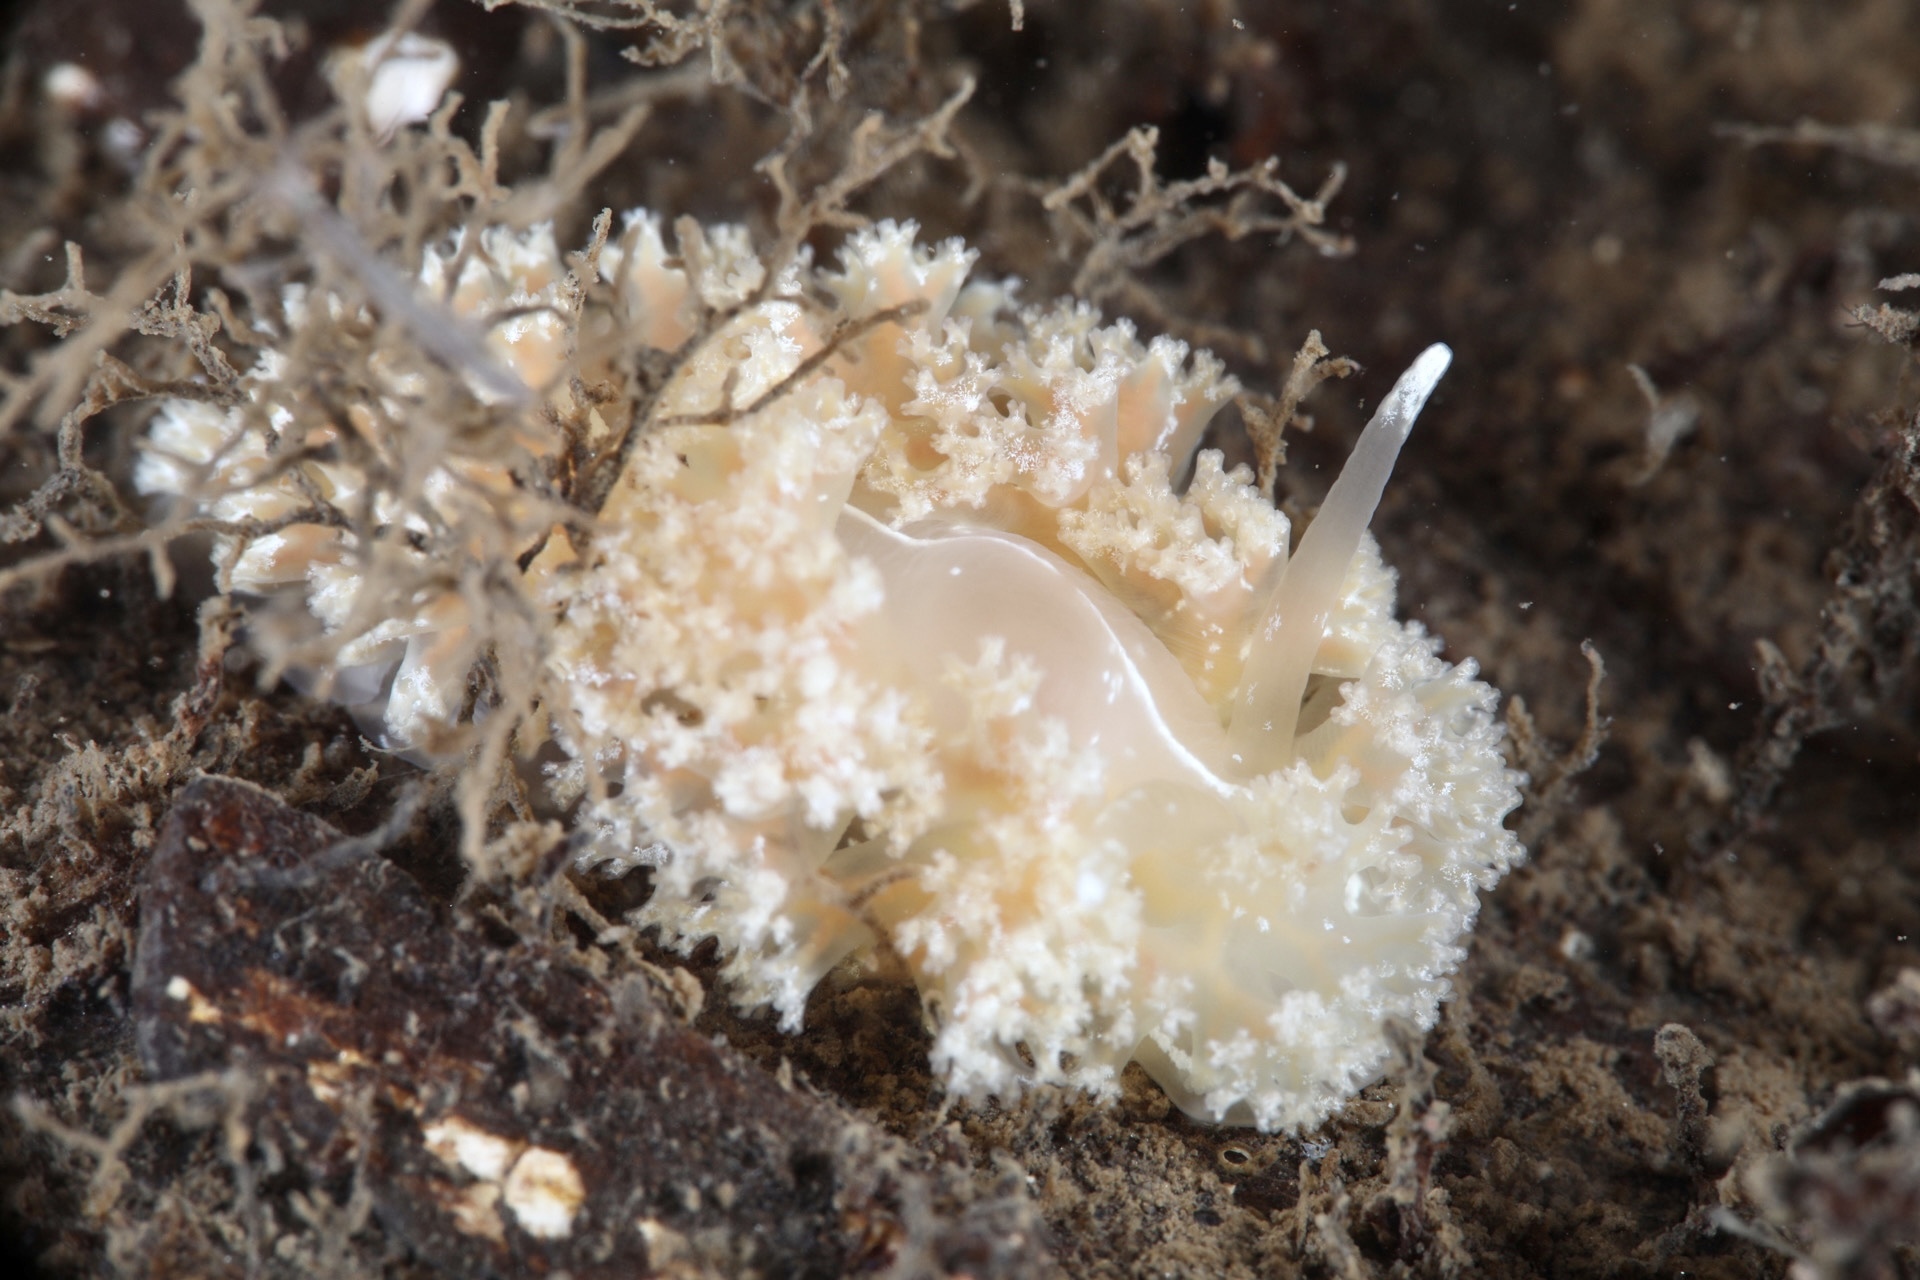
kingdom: Animalia
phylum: Mollusca
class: Gastropoda
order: Nudibranchia
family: Heroidae
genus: Hero
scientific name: Hero formosa
